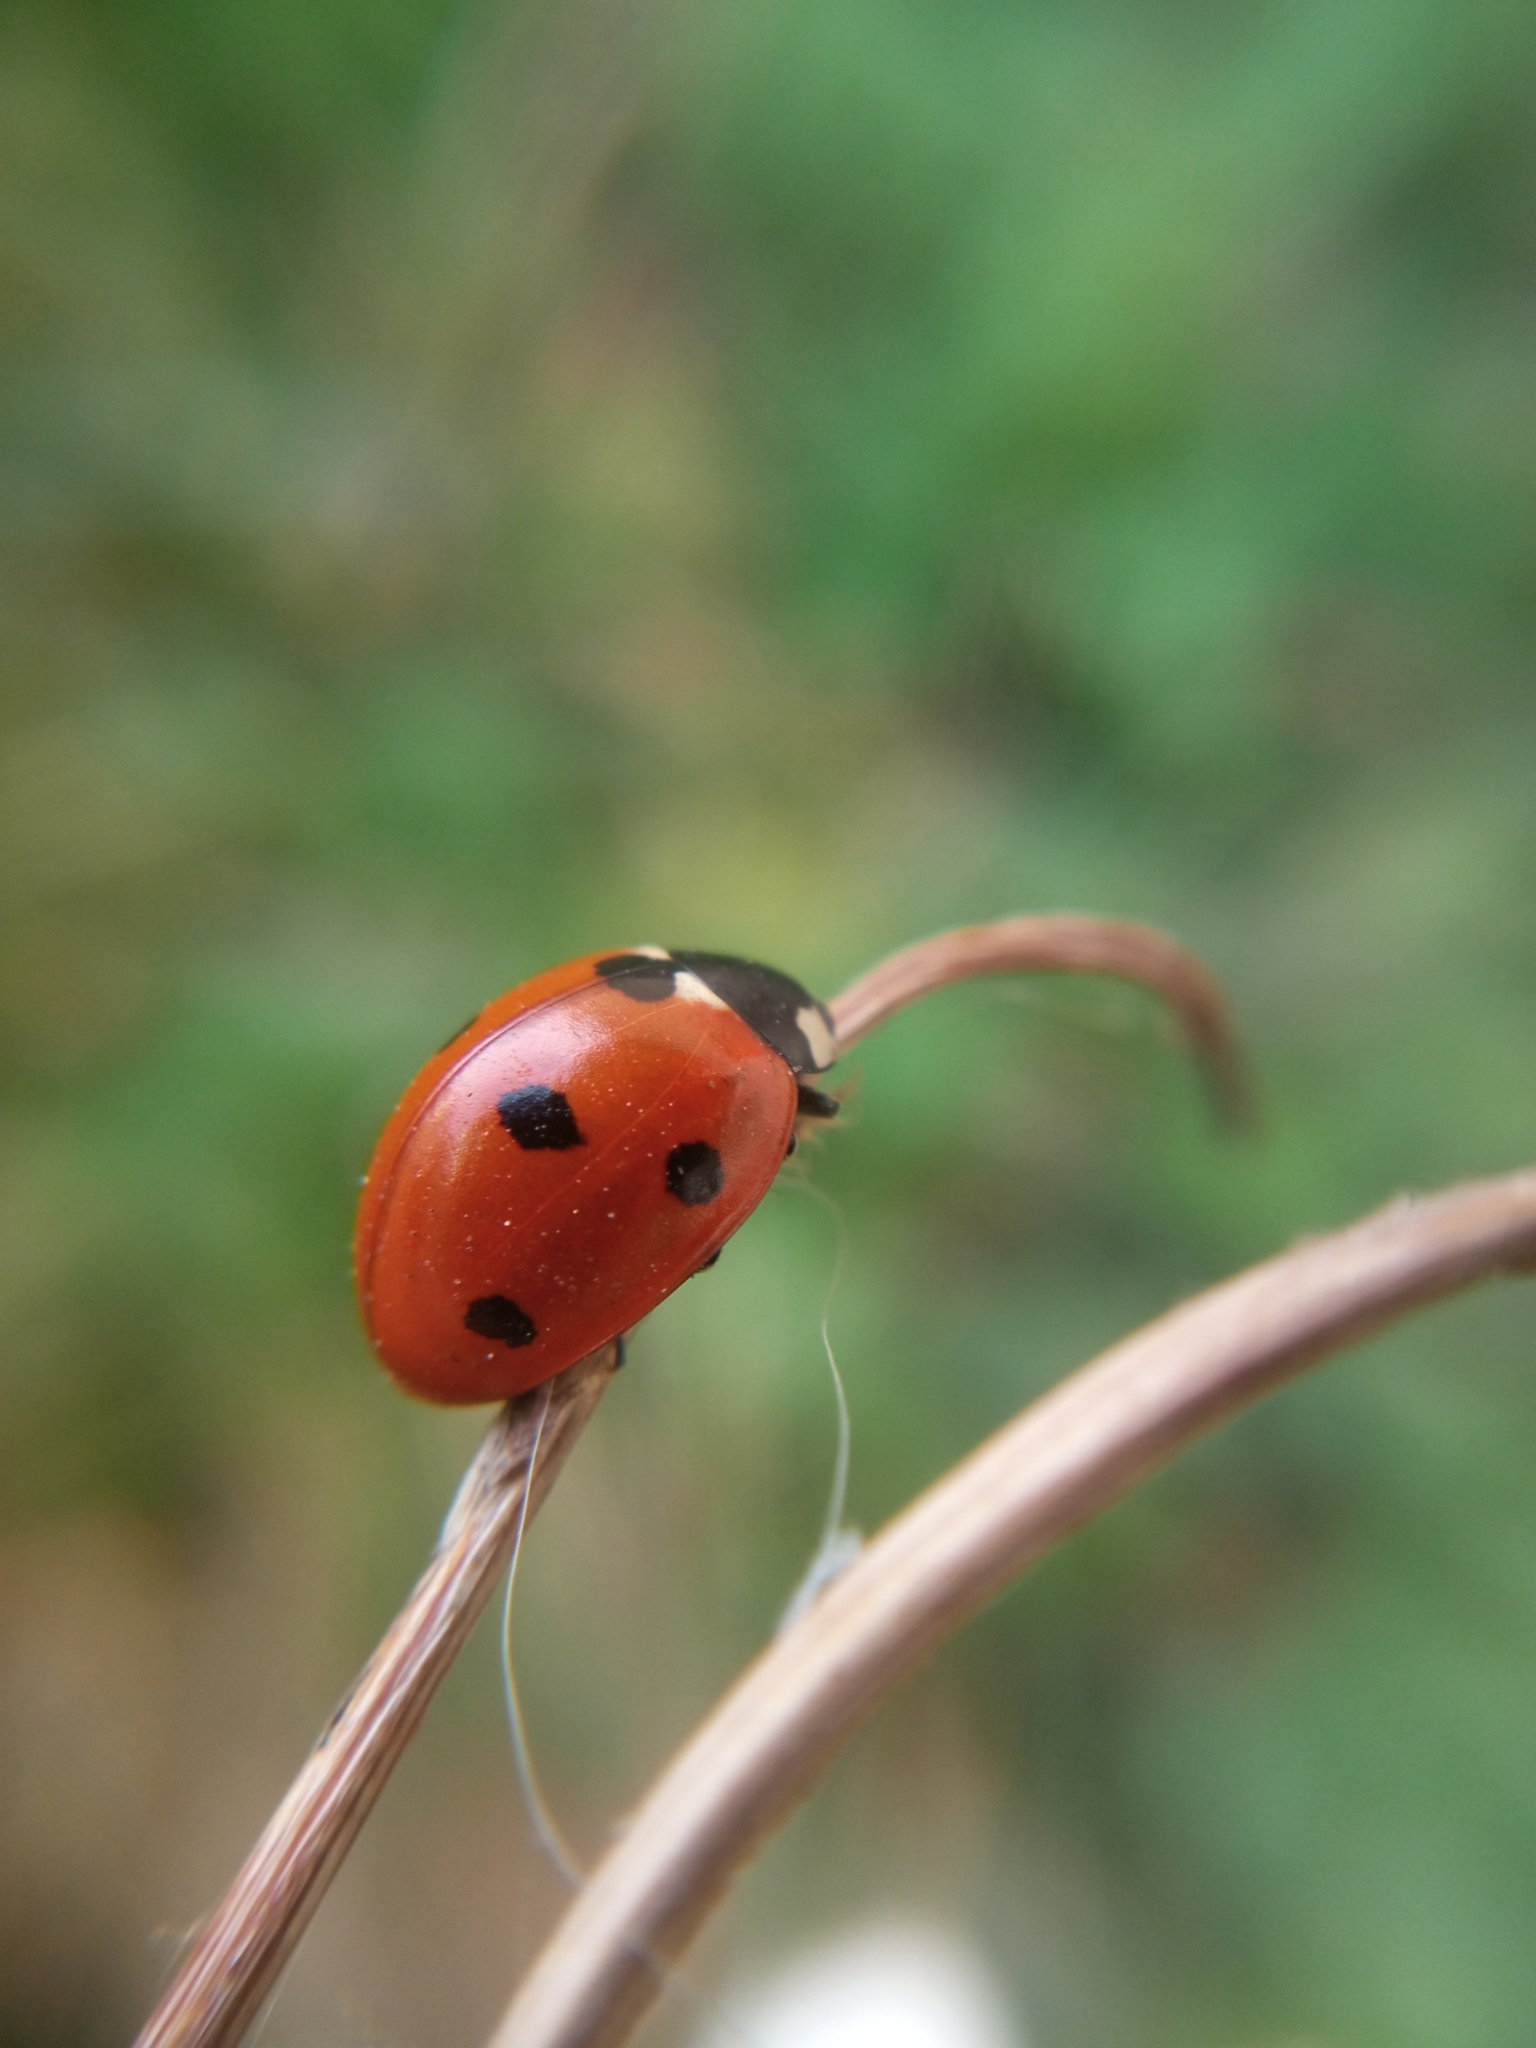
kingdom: Animalia
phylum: Arthropoda
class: Insecta
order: Coleoptera
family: Coccinellidae
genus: Coccinella
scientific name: Coccinella septempunctata
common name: Sevenspotted lady beetle
